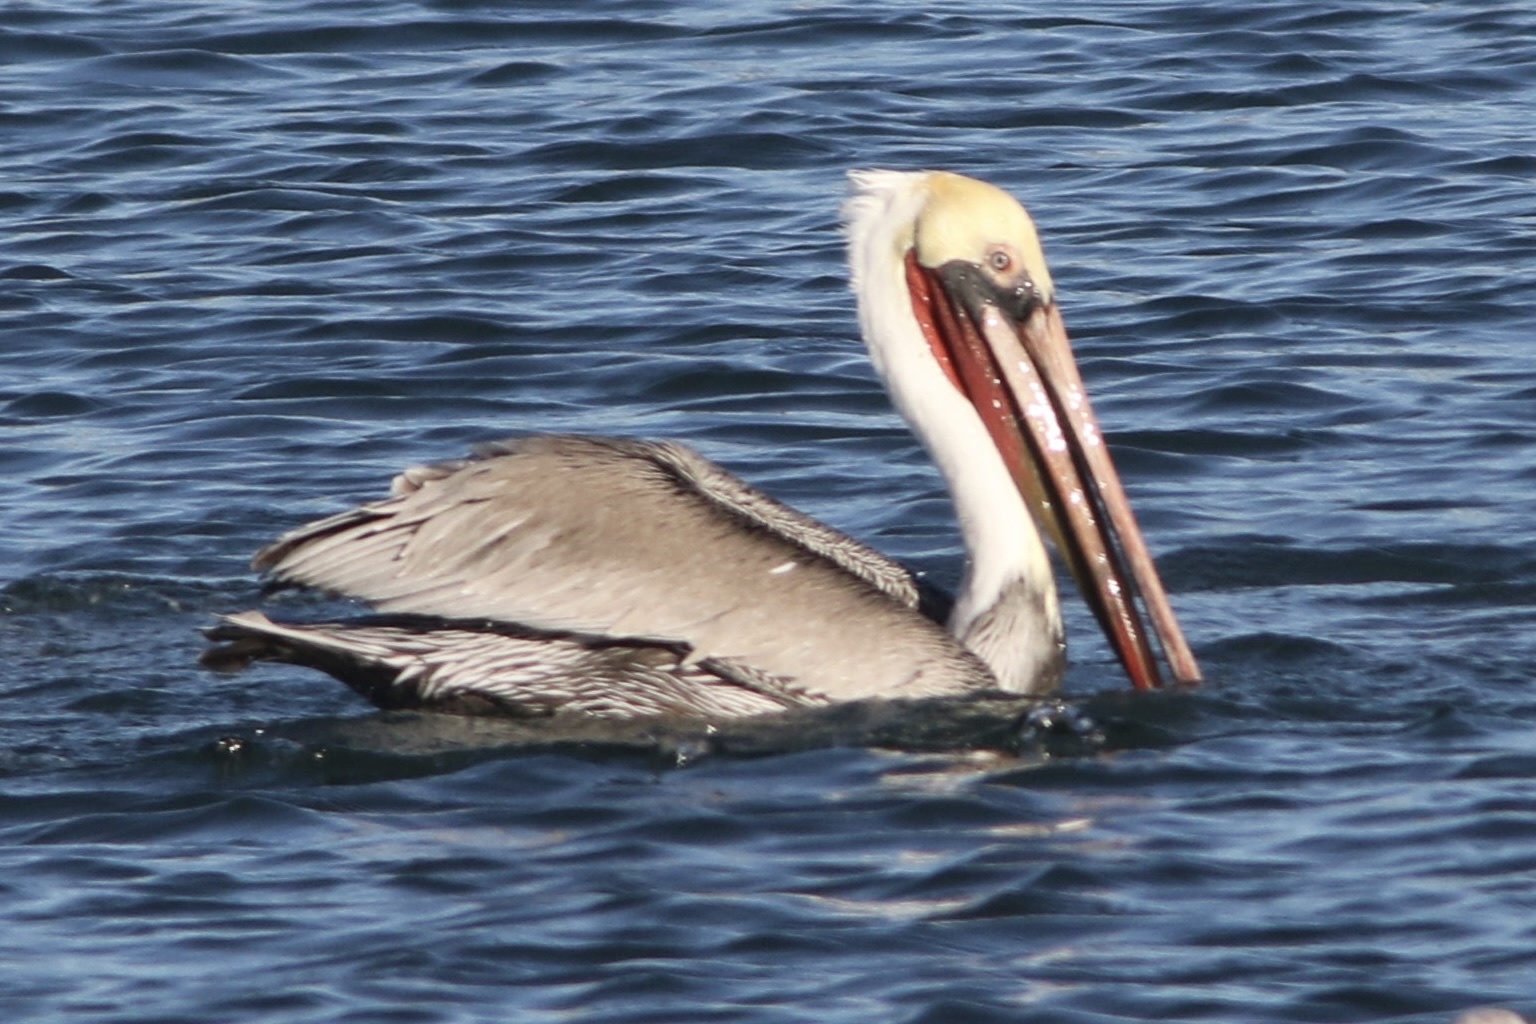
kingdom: Animalia
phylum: Chordata
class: Aves
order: Pelecaniformes
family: Pelecanidae
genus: Pelecanus
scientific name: Pelecanus occidentalis
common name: Brown pelican
